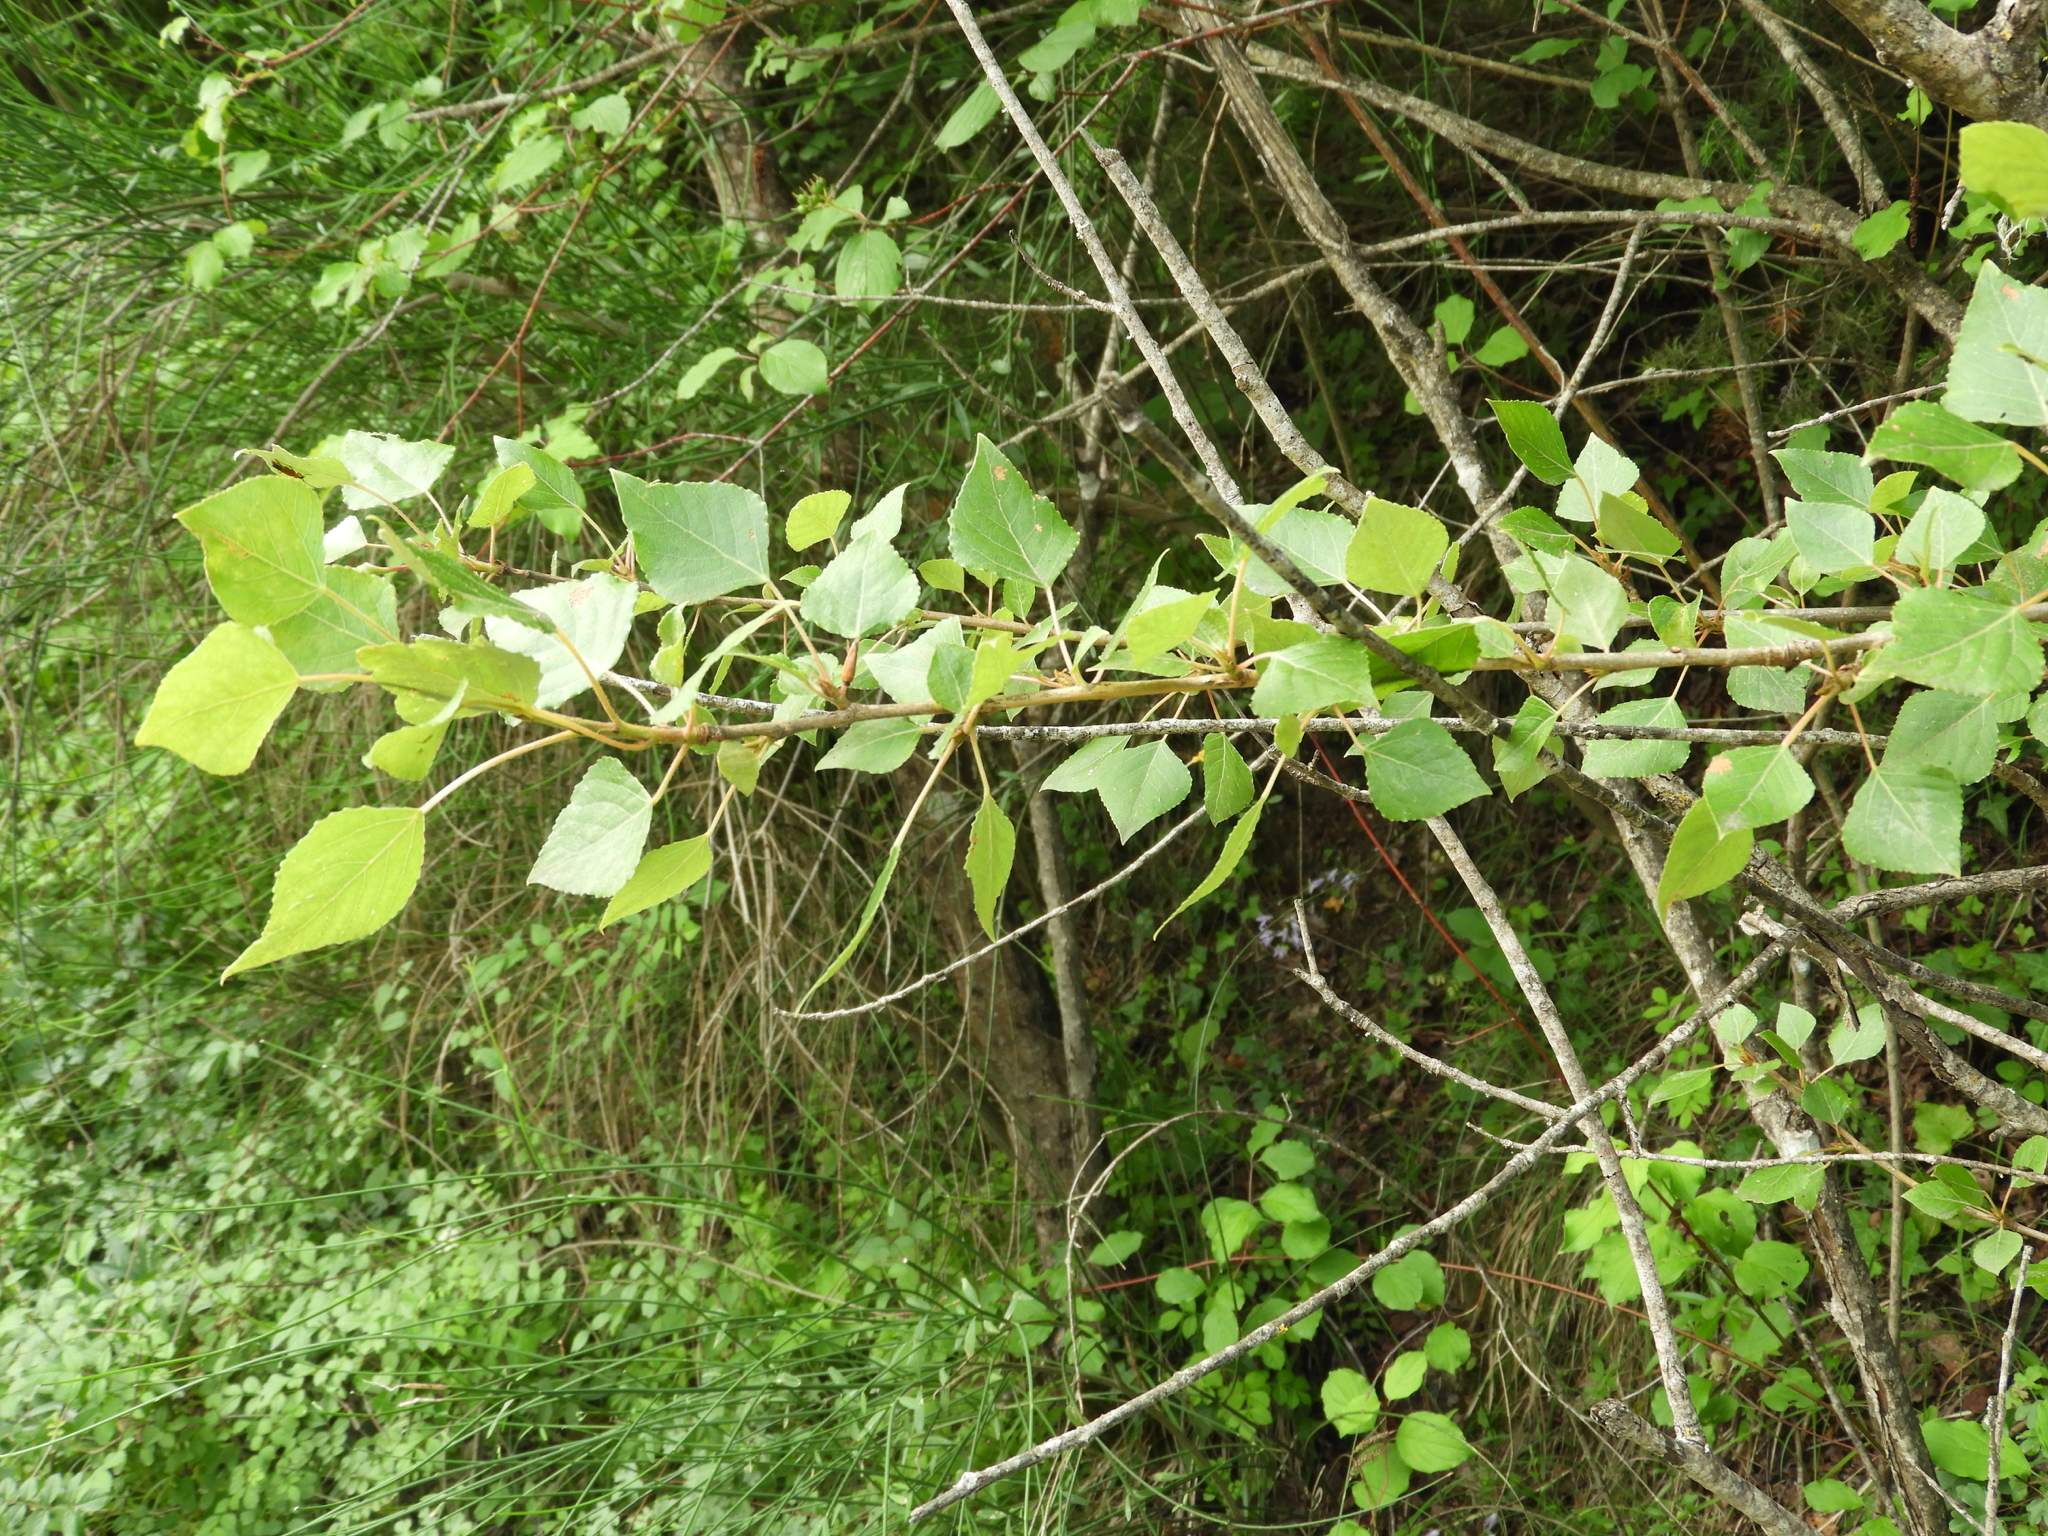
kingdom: Plantae
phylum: Tracheophyta
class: Magnoliopsida
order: Malpighiales
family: Salicaceae
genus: Populus
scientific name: Populus nigra
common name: Black poplar
